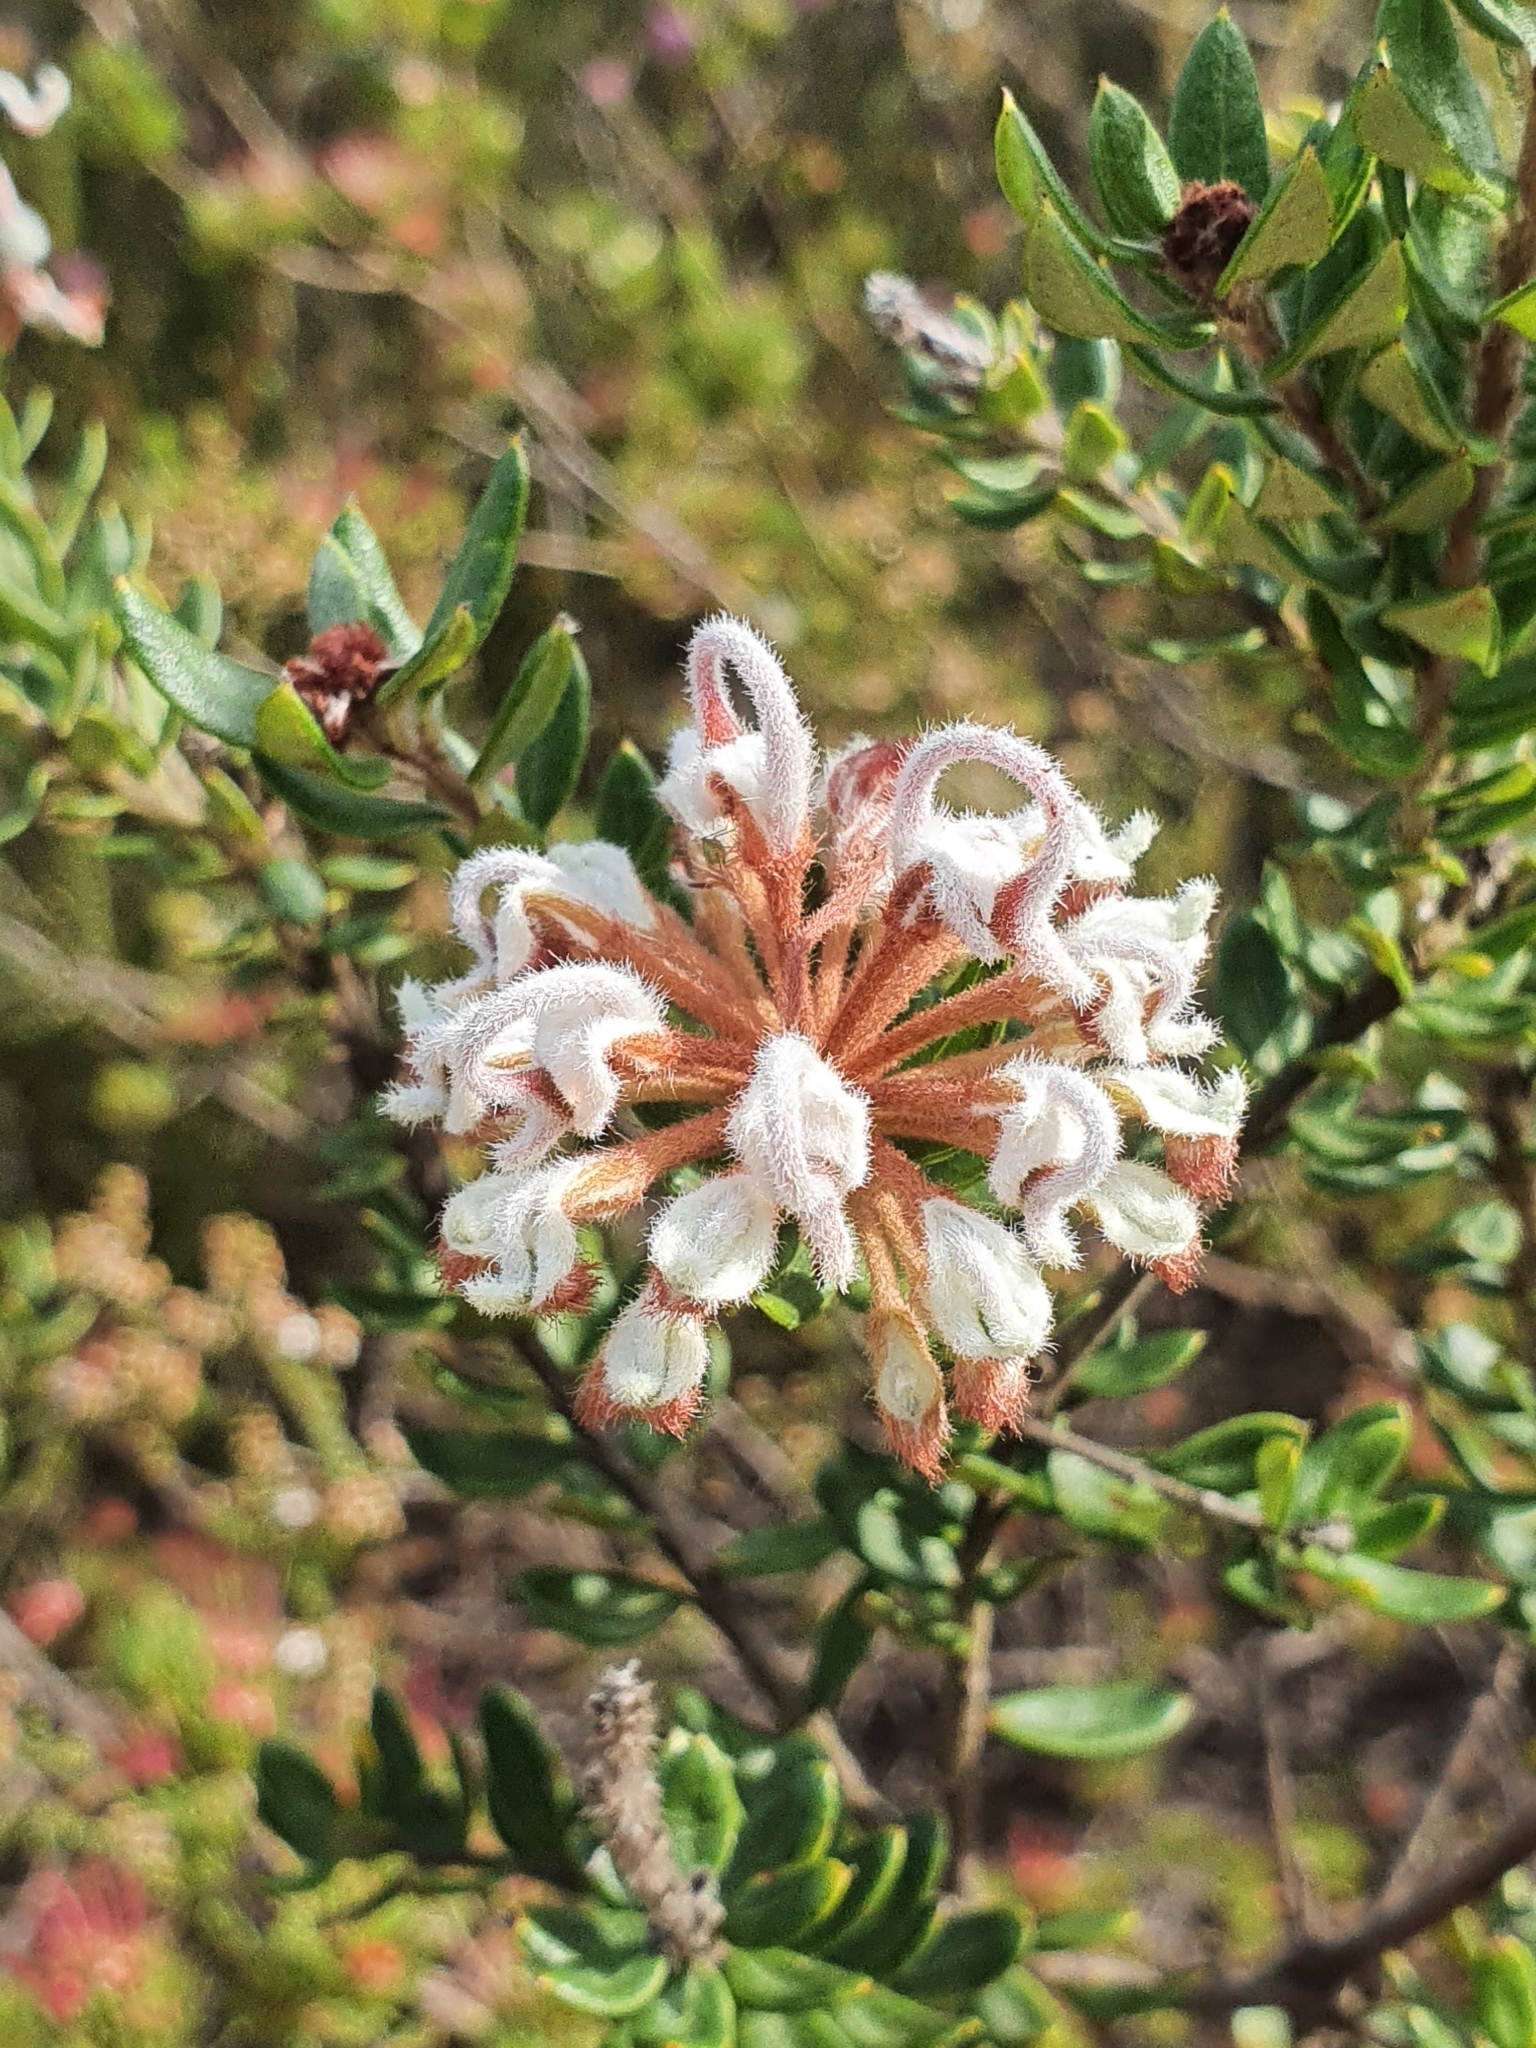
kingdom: Plantae
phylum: Tracheophyta
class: Magnoliopsida
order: Proteales
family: Proteaceae
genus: Grevillea
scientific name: Grevillea buxifolia
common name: Grey spiderflower
